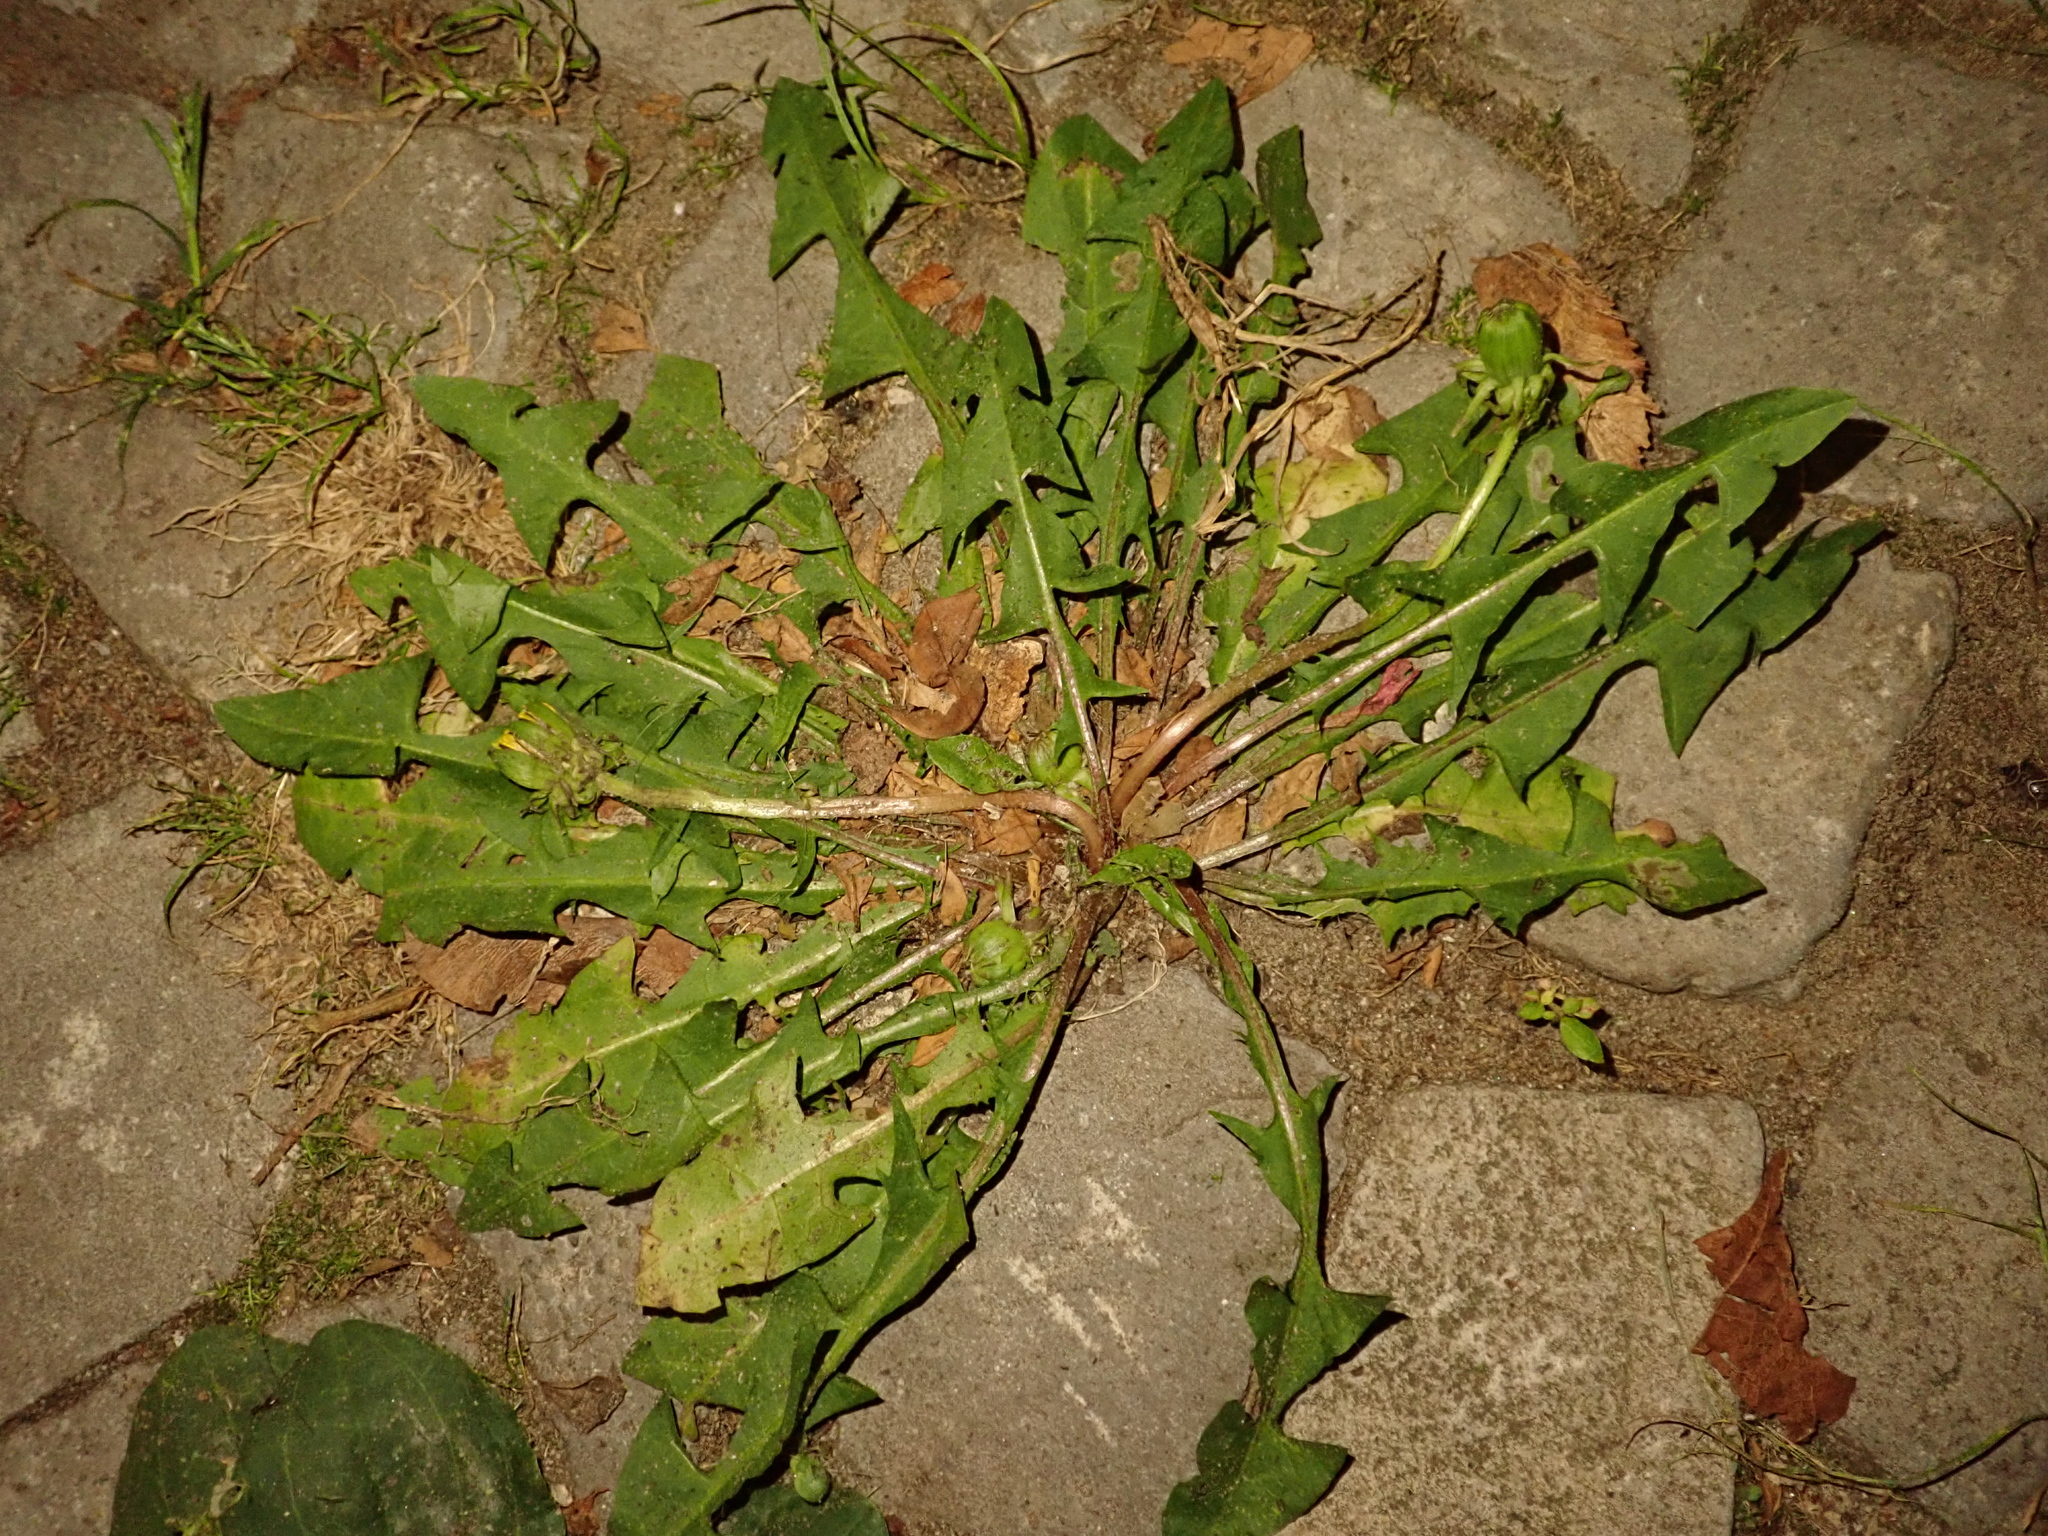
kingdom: Plantae
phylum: Tracheophyta
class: Magnoliopsida
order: Asterales
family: Asteraceae
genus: Taraxacum
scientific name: Taraxacum officinale
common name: Common dandelion
